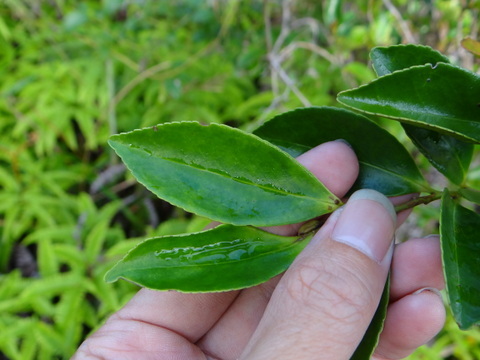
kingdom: Plantae
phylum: Tracheophyta
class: Magnoliopsida
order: Ericales
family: Pentaphylacaceae
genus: Eurya
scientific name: Eurya nitida
